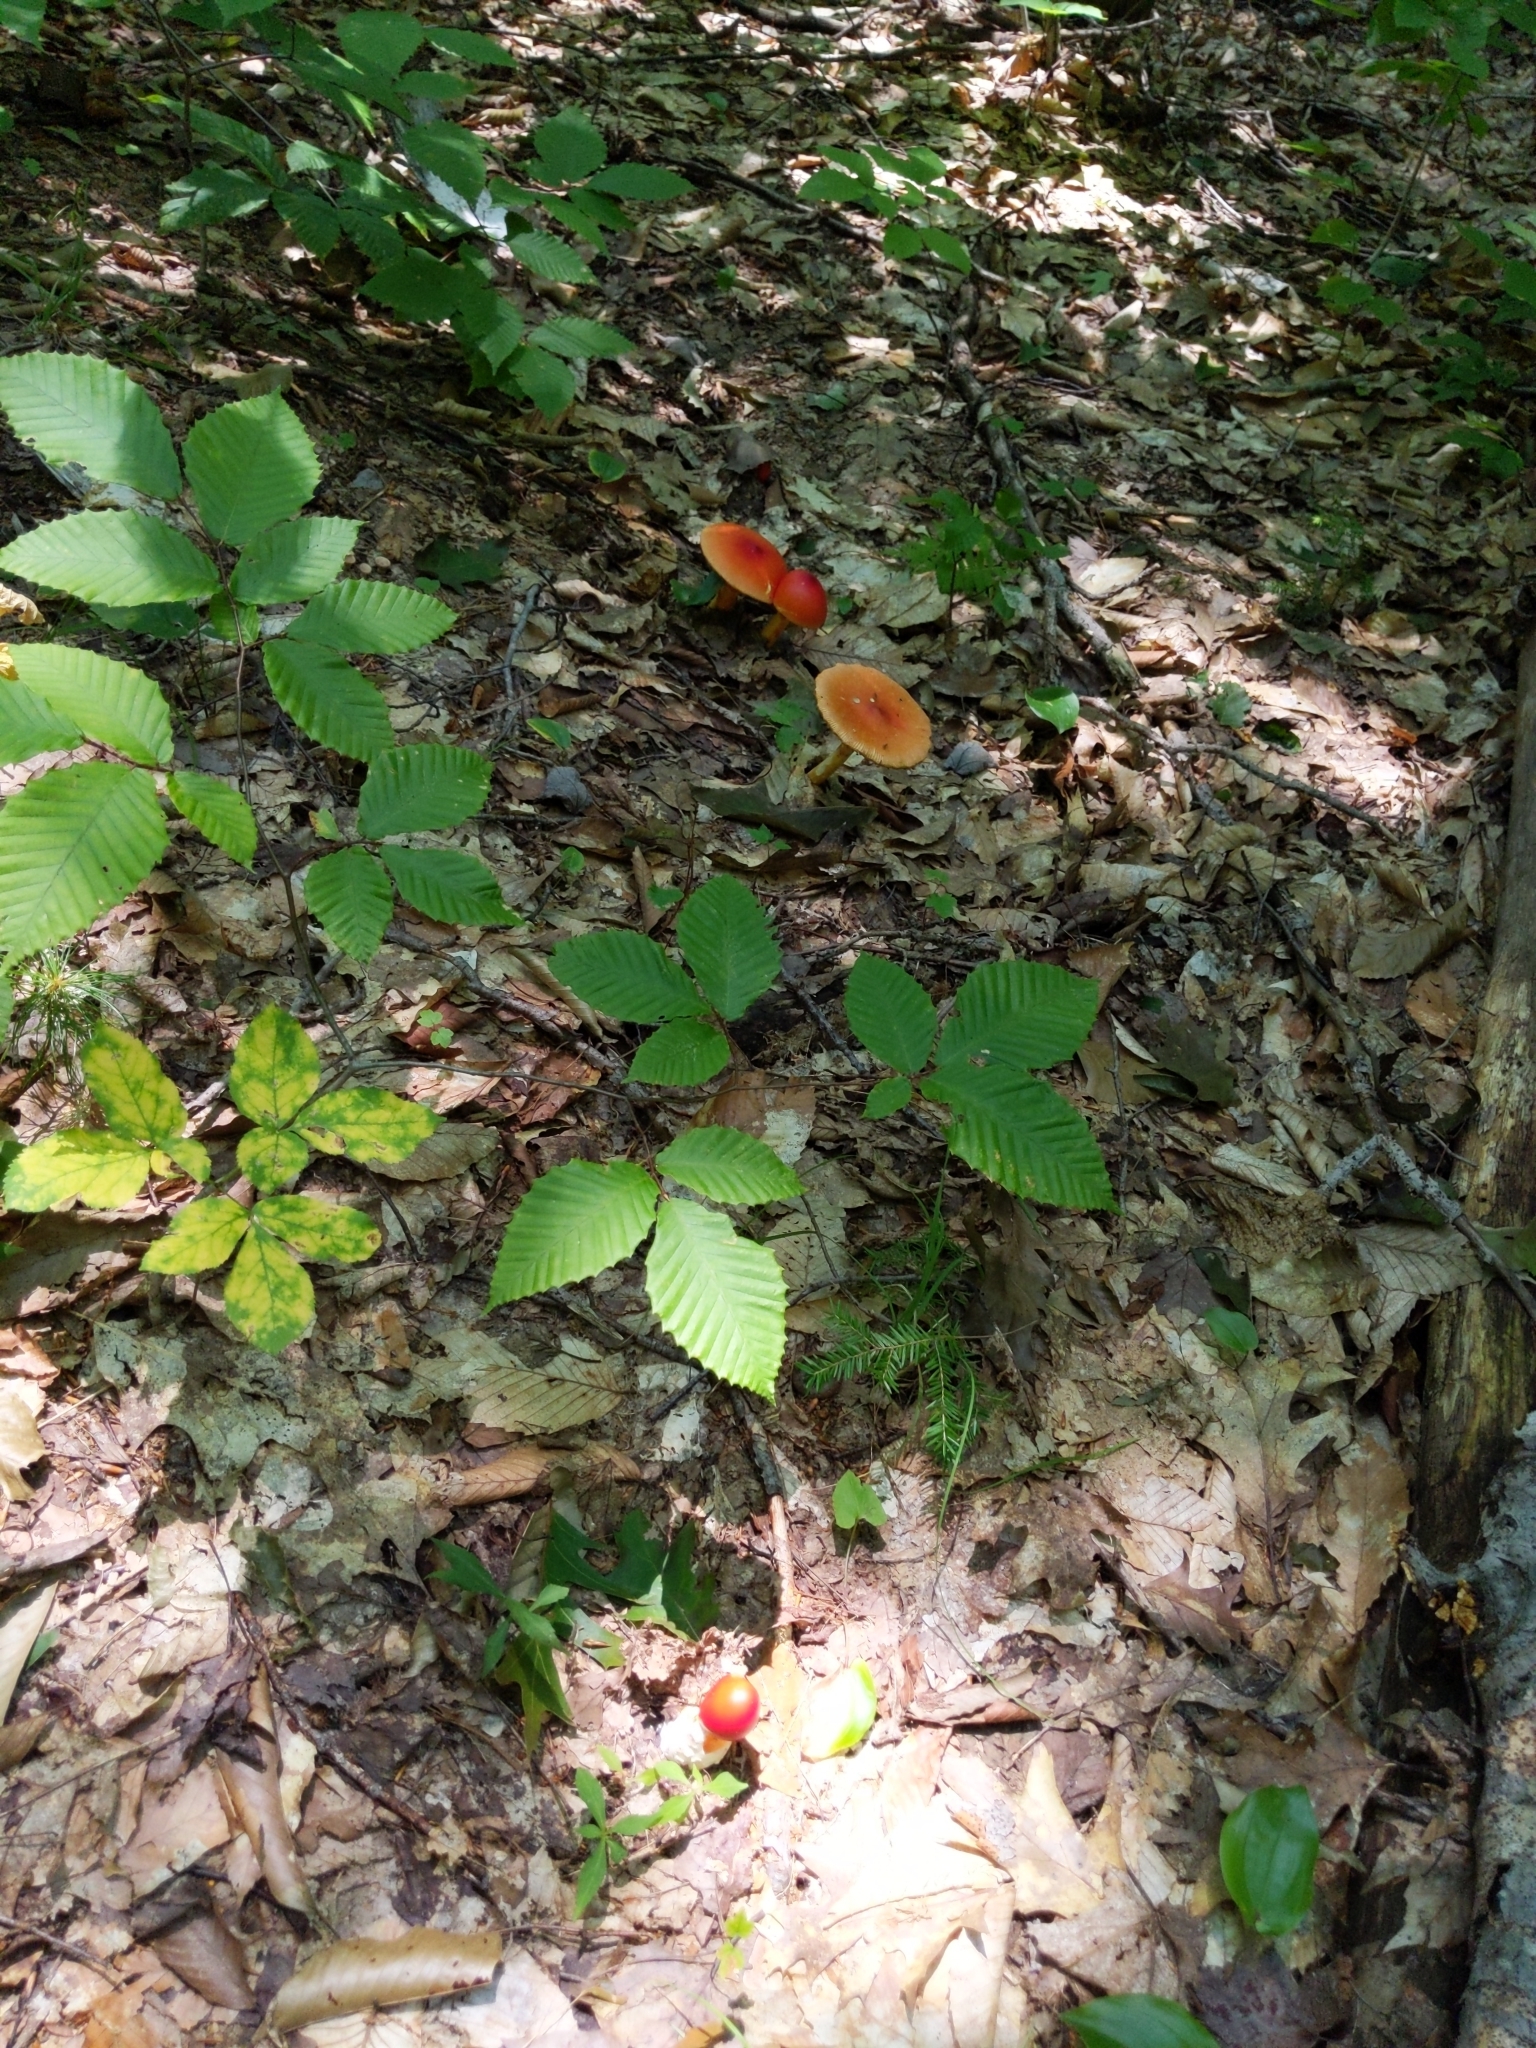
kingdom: Fungi
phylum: Basidiomycota
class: Agaricomycetes
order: Agaricales
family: Amanitaceae
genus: Amanita
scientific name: Amanita jacksonii
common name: Jackson's slender caesar
